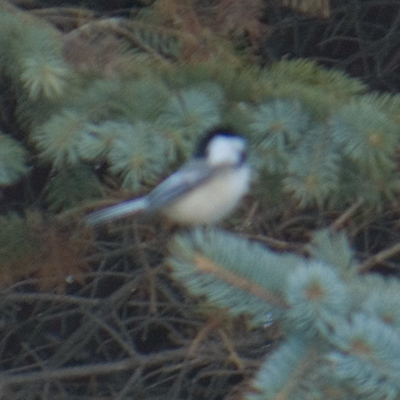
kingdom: Animalia
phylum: Chordata
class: Aves
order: Passeriformes
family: Paridae
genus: Poecile
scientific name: Poecile atricapillus
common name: Black-capped chickadee
